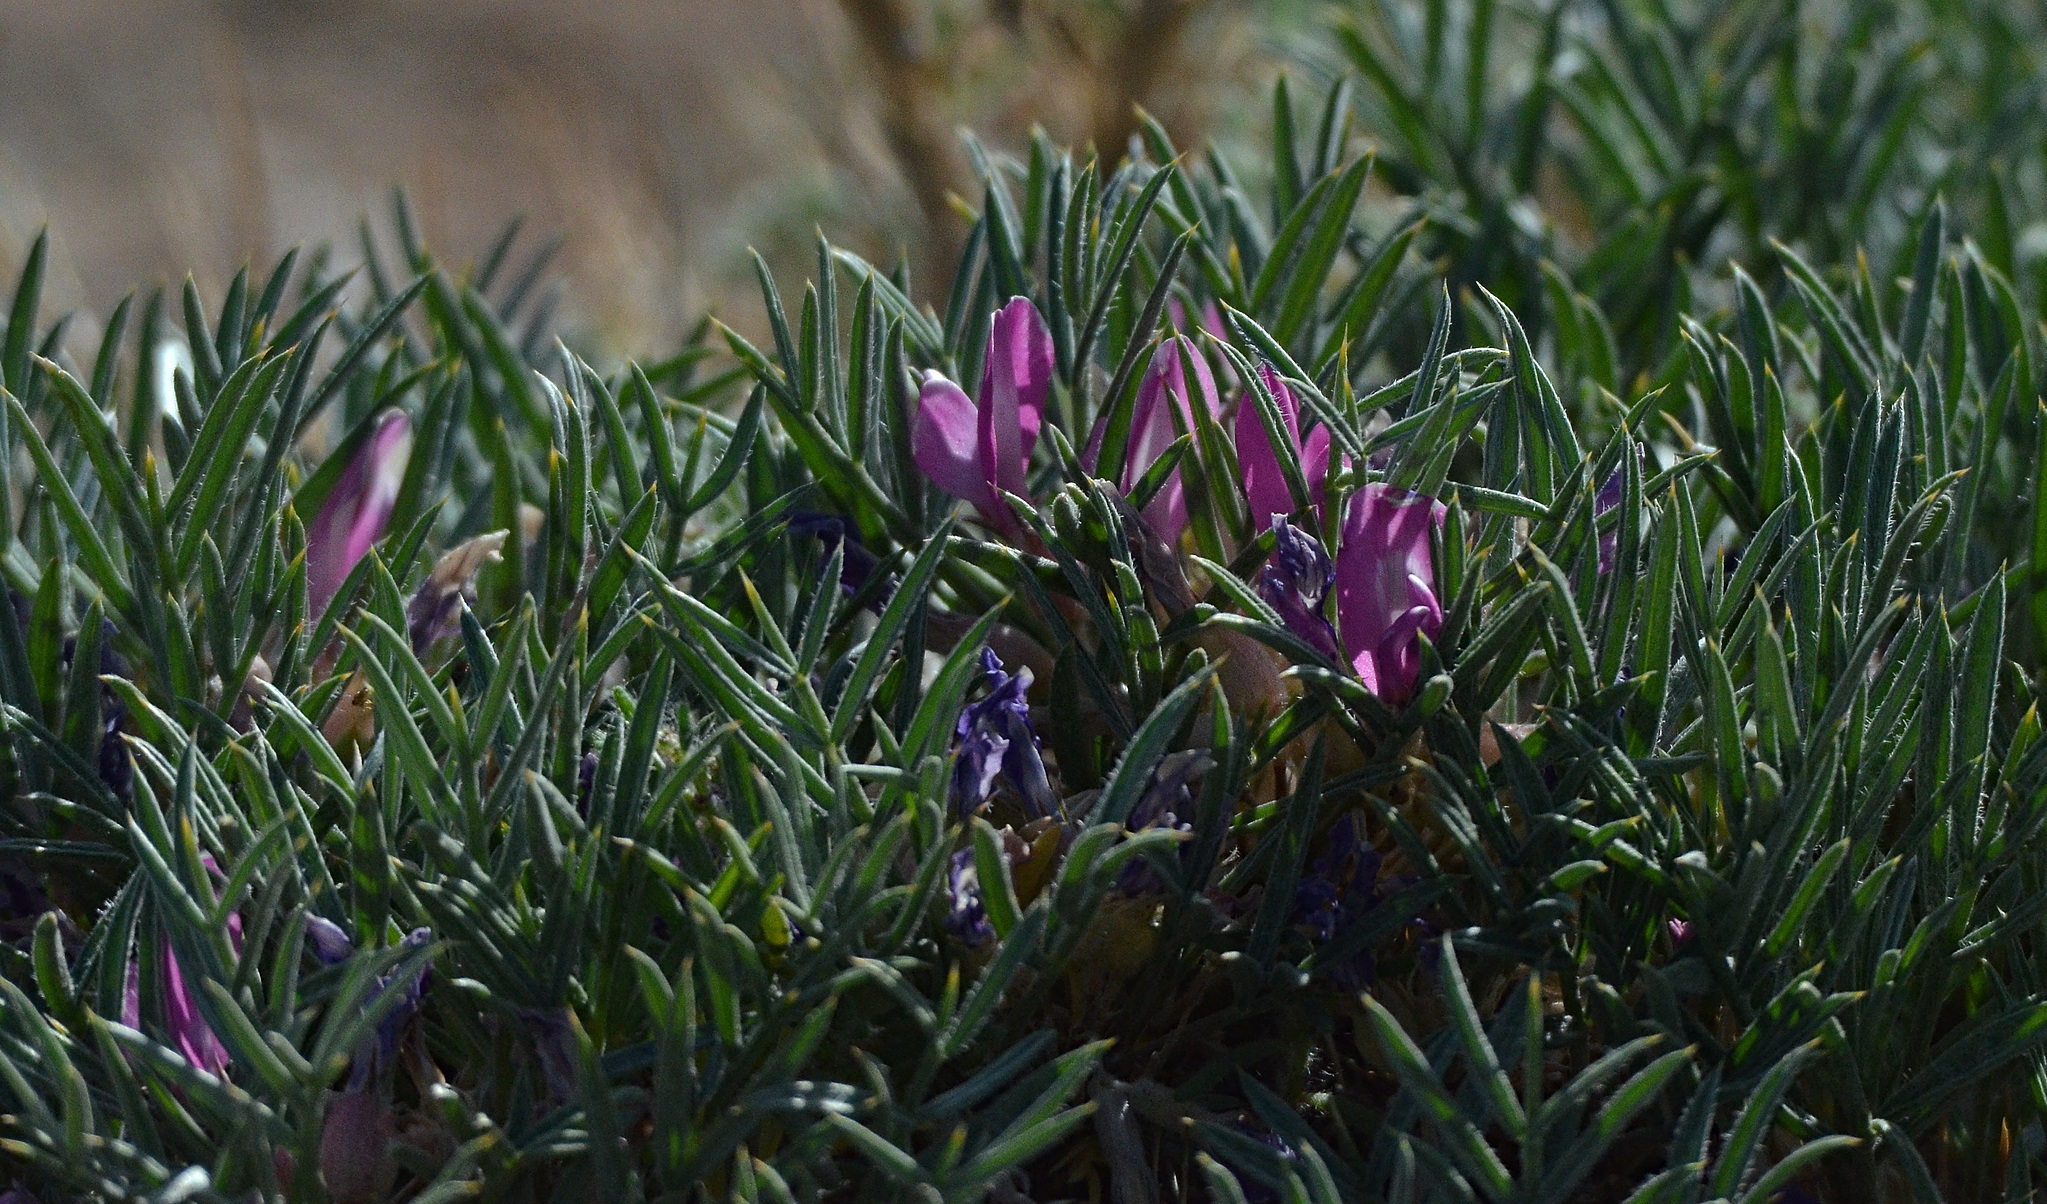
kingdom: Plantae
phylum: Tracheophyta
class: Magnoliopsida
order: Fabales
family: Fabaceae
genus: Oxytropis
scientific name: Oxytropis aciphylla
